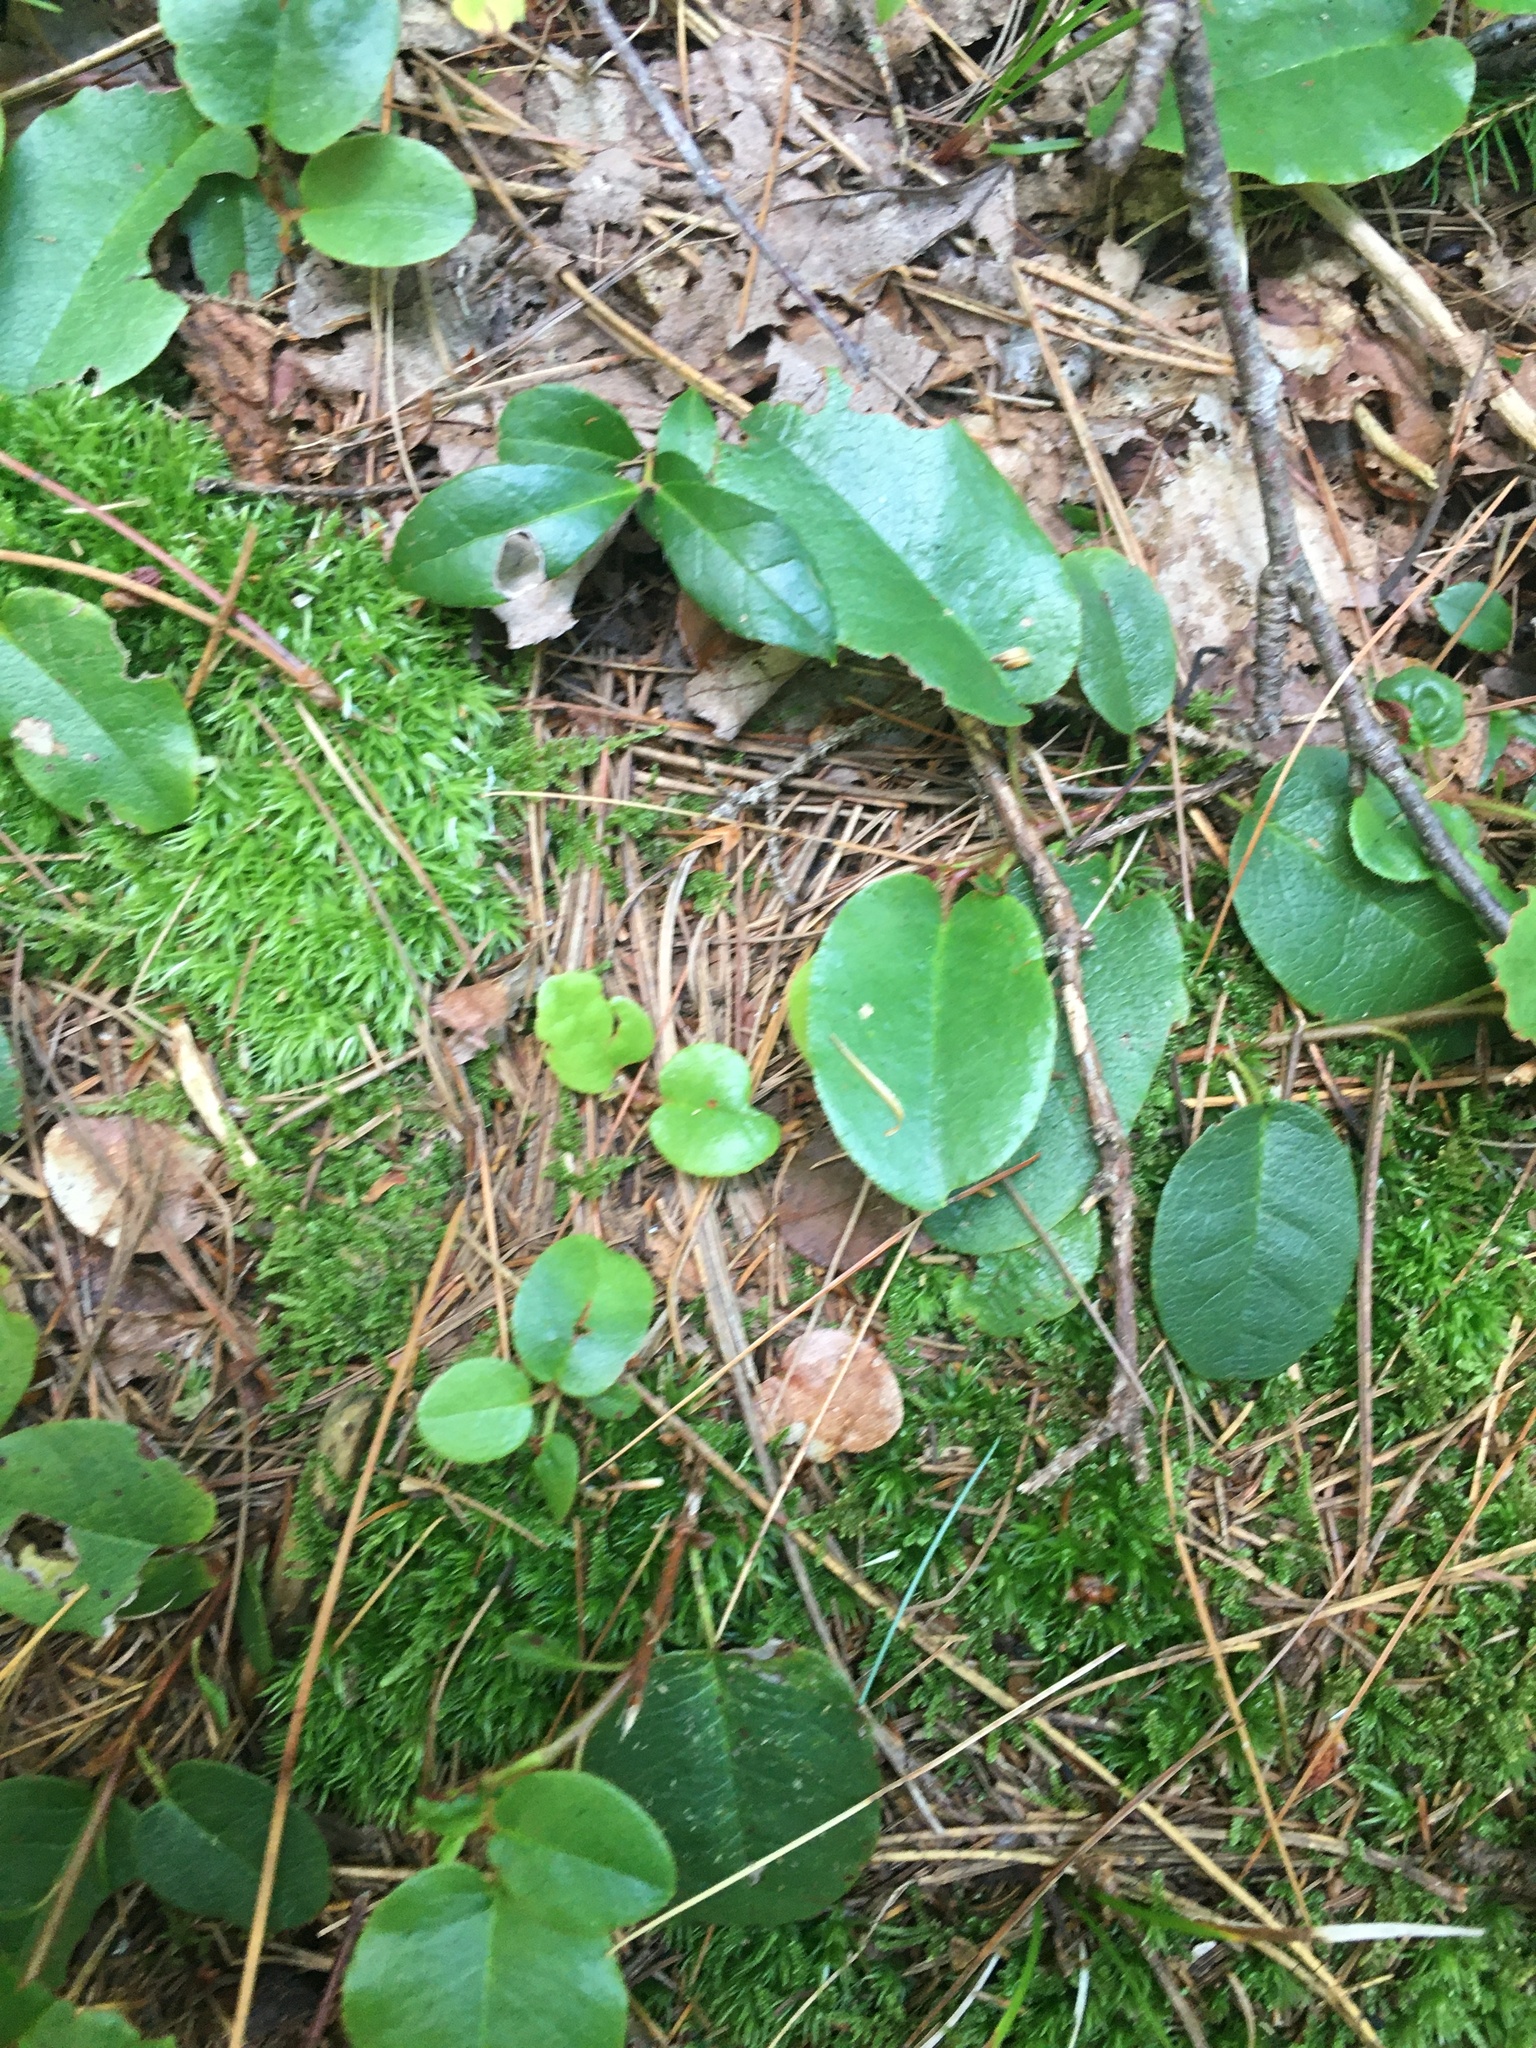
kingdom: Plantae
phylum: Tracheophyta
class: Magnoliopsida
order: Ericales
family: Ericaceae
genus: Epigaea
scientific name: Epigaea repens
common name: Gravelroot
